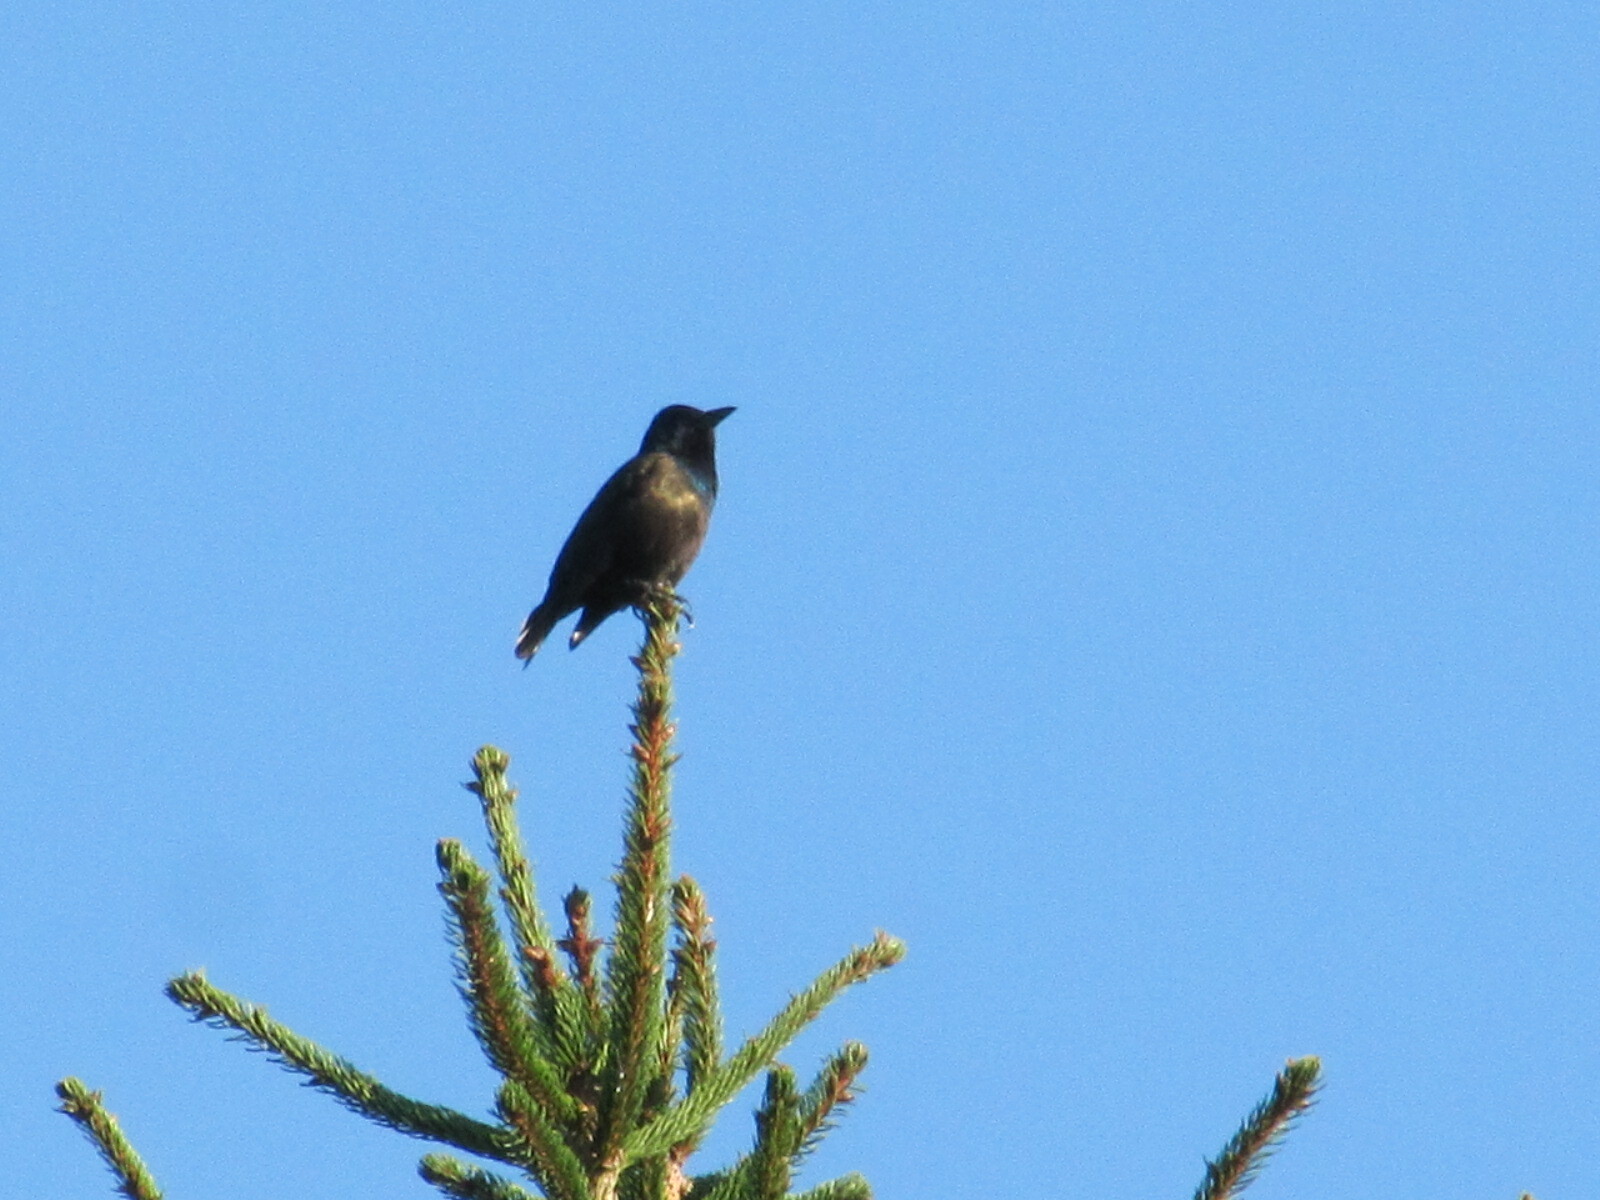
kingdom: Animalia
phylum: Chordata
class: Aves
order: Passeriformes
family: Icteridae
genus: Quiscalus
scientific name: Quiscalus quiscula
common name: Common grackle
